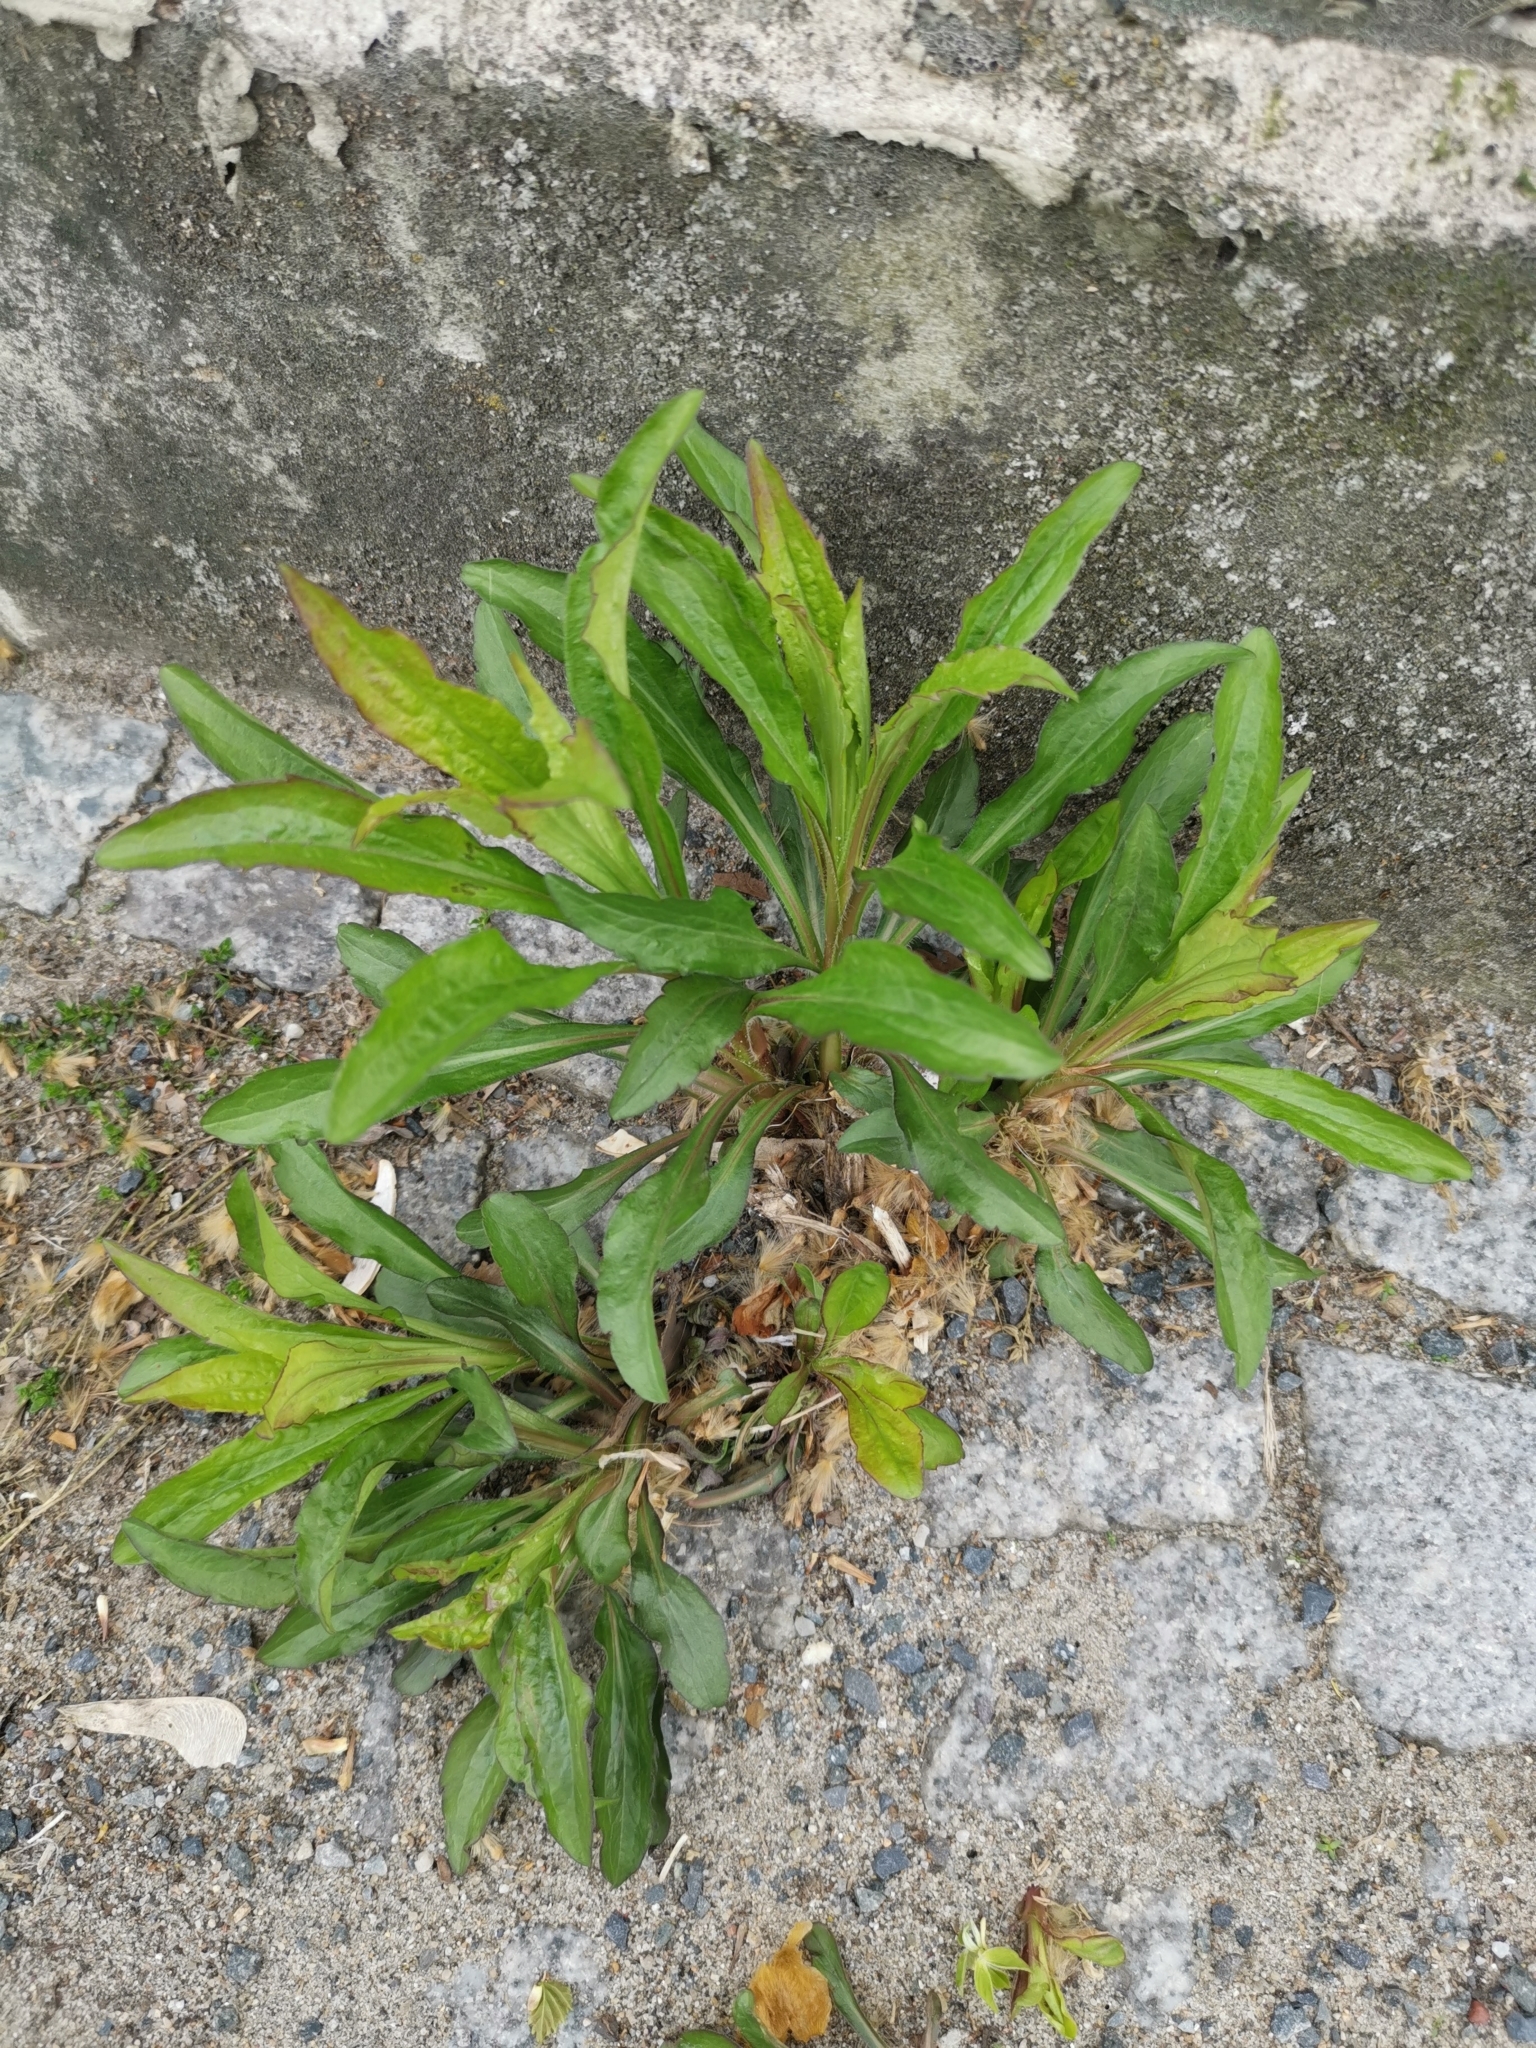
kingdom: Plantae
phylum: Tracheophyta
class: Magnoliopsida
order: Asterales
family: Asteraceae
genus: Solidago
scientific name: Solidago canadensis
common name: Canada goldenrod
